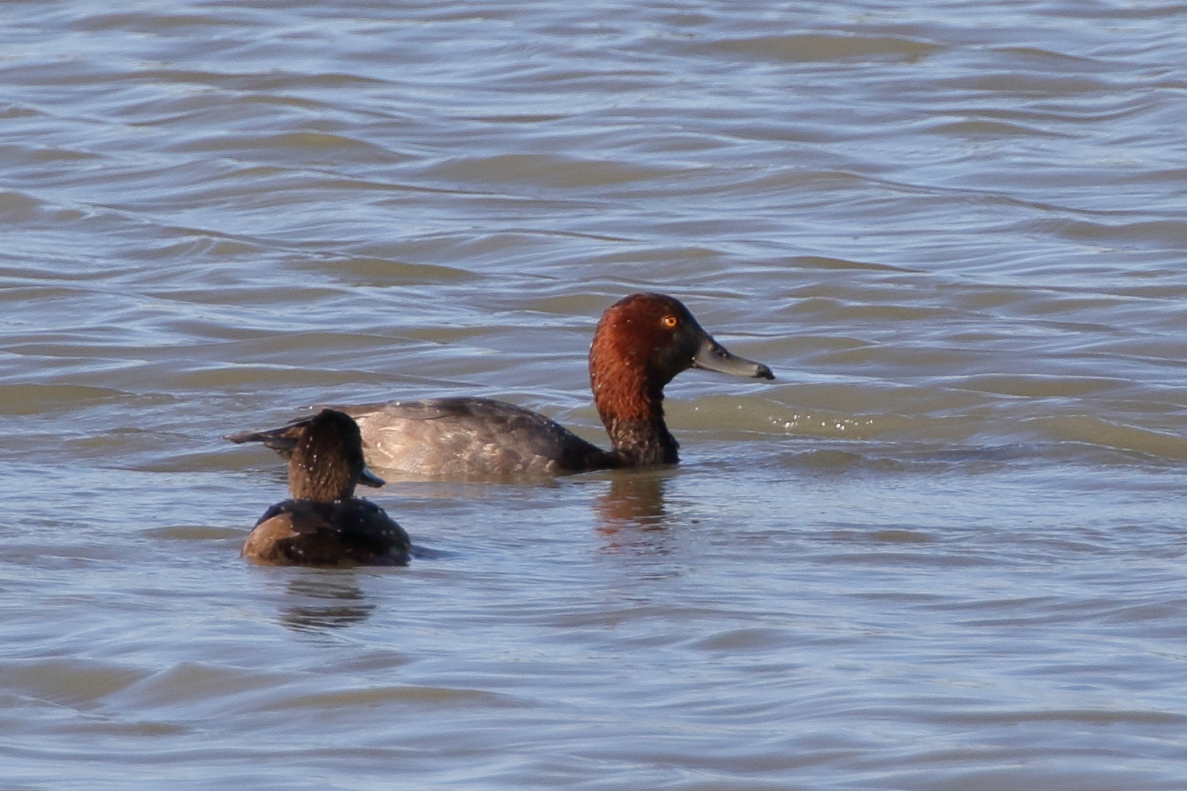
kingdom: Animalia
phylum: Chordata
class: Aves
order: Anseriformes
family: Anatidae
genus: Aythya
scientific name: Aythya americana
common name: Redhead
